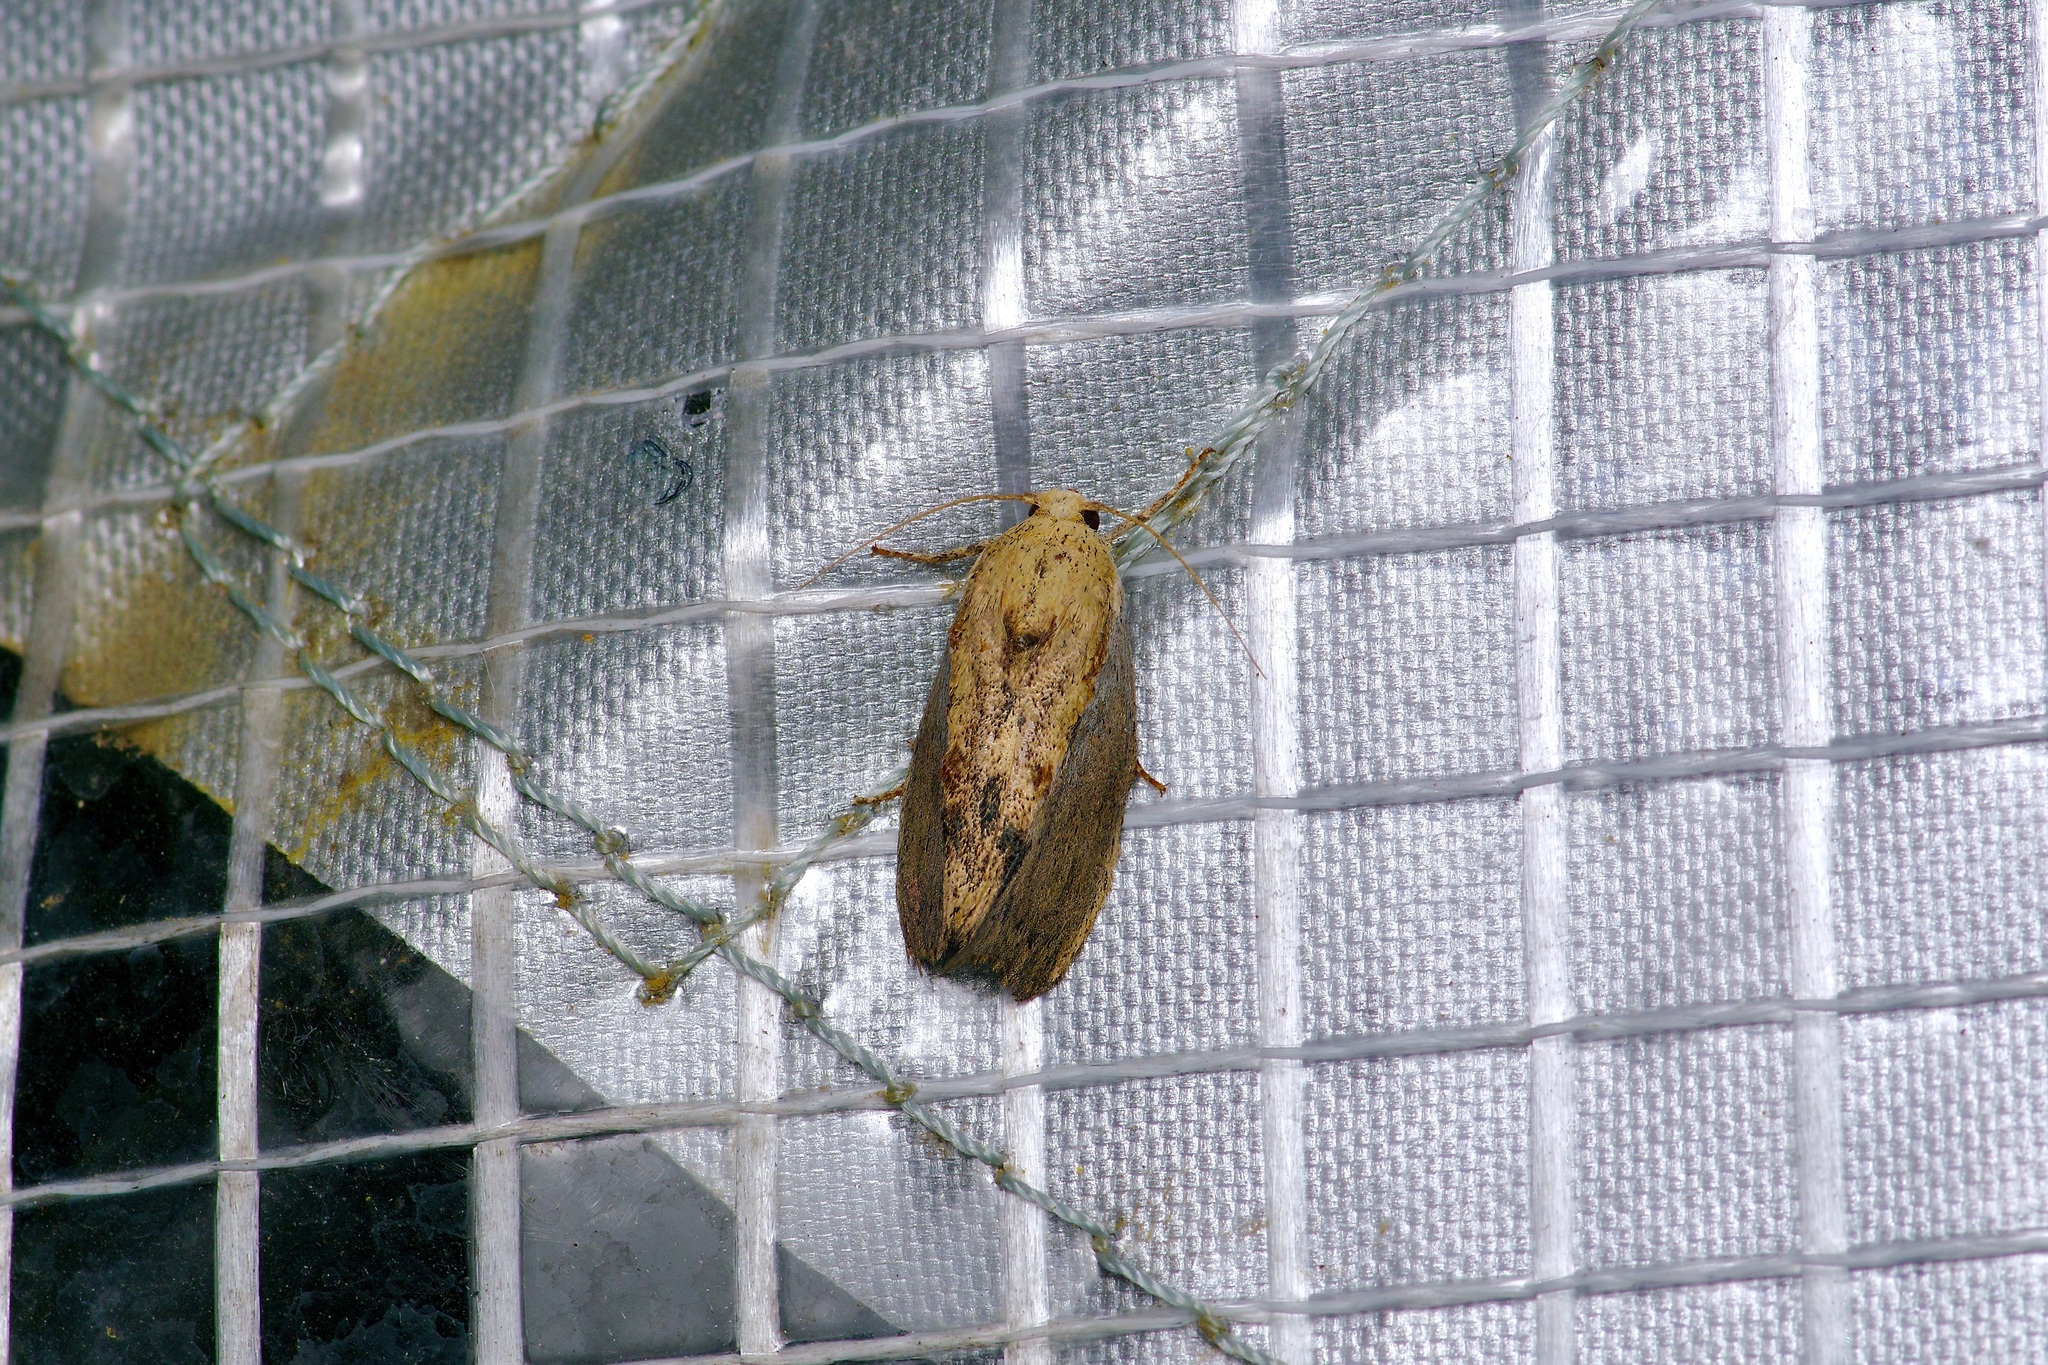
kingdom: Animalia
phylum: Arthropoda
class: Insecta
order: Lepidoptera
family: Pyralidae
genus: Galleria
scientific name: Galleria mellonella
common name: Greater wax moth
